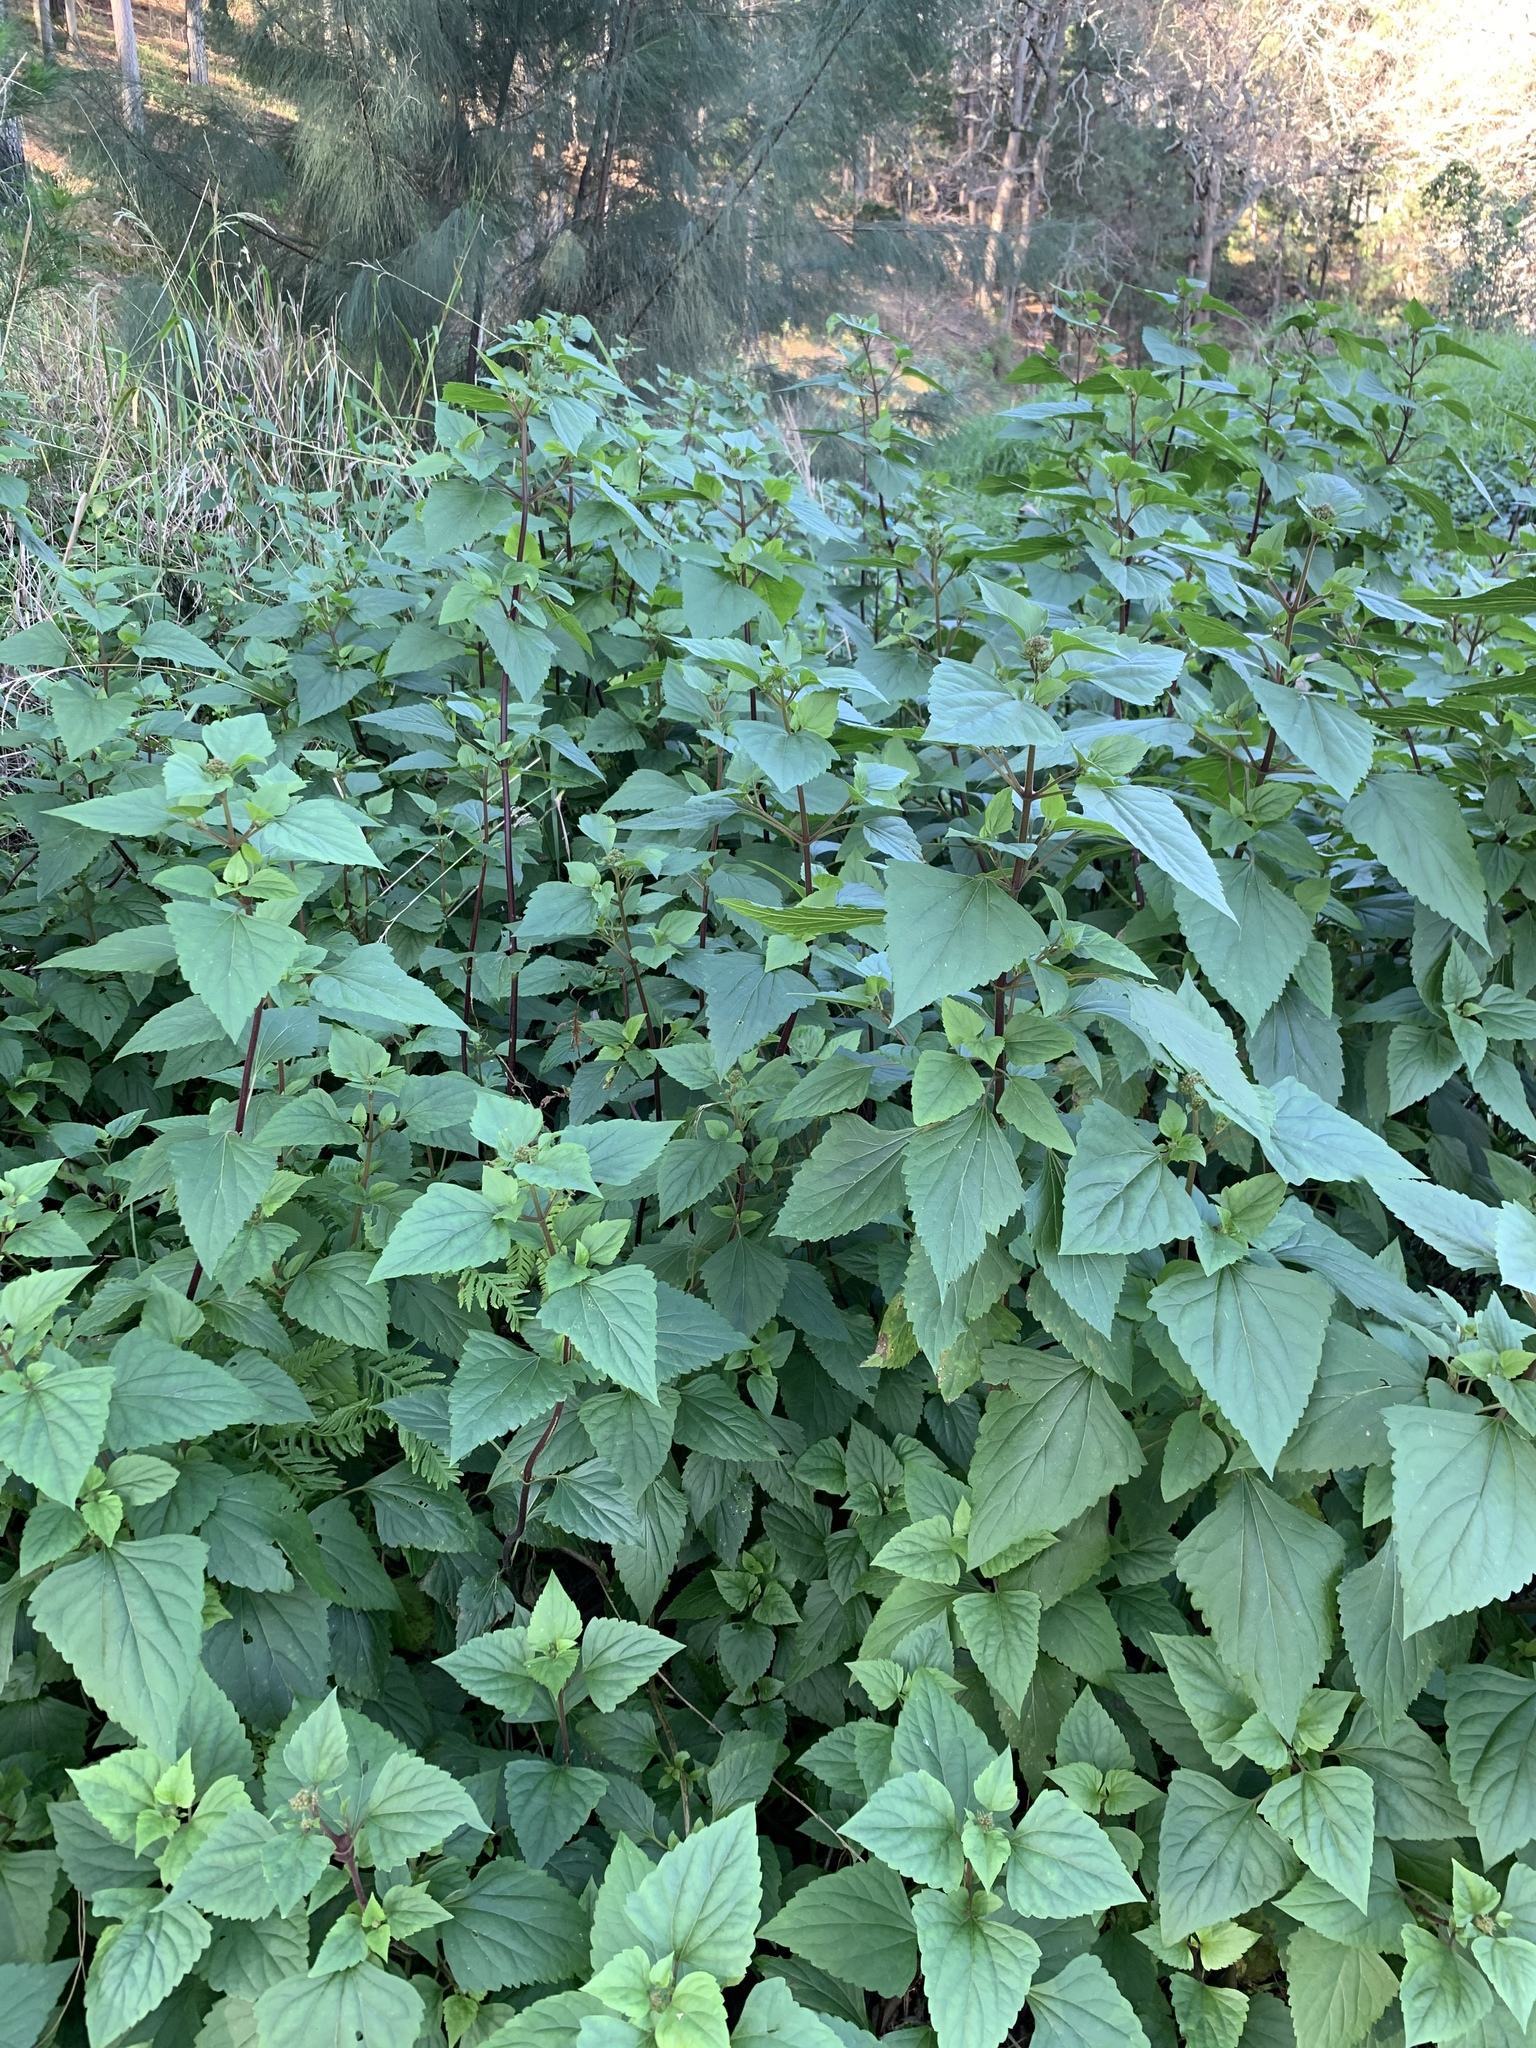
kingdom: Plantae
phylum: Tracheophyta
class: Magnoliopsida
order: Asterales
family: Asteraceae
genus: Ageratina
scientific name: Ageratina adenophora
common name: Sticky snakeroot
